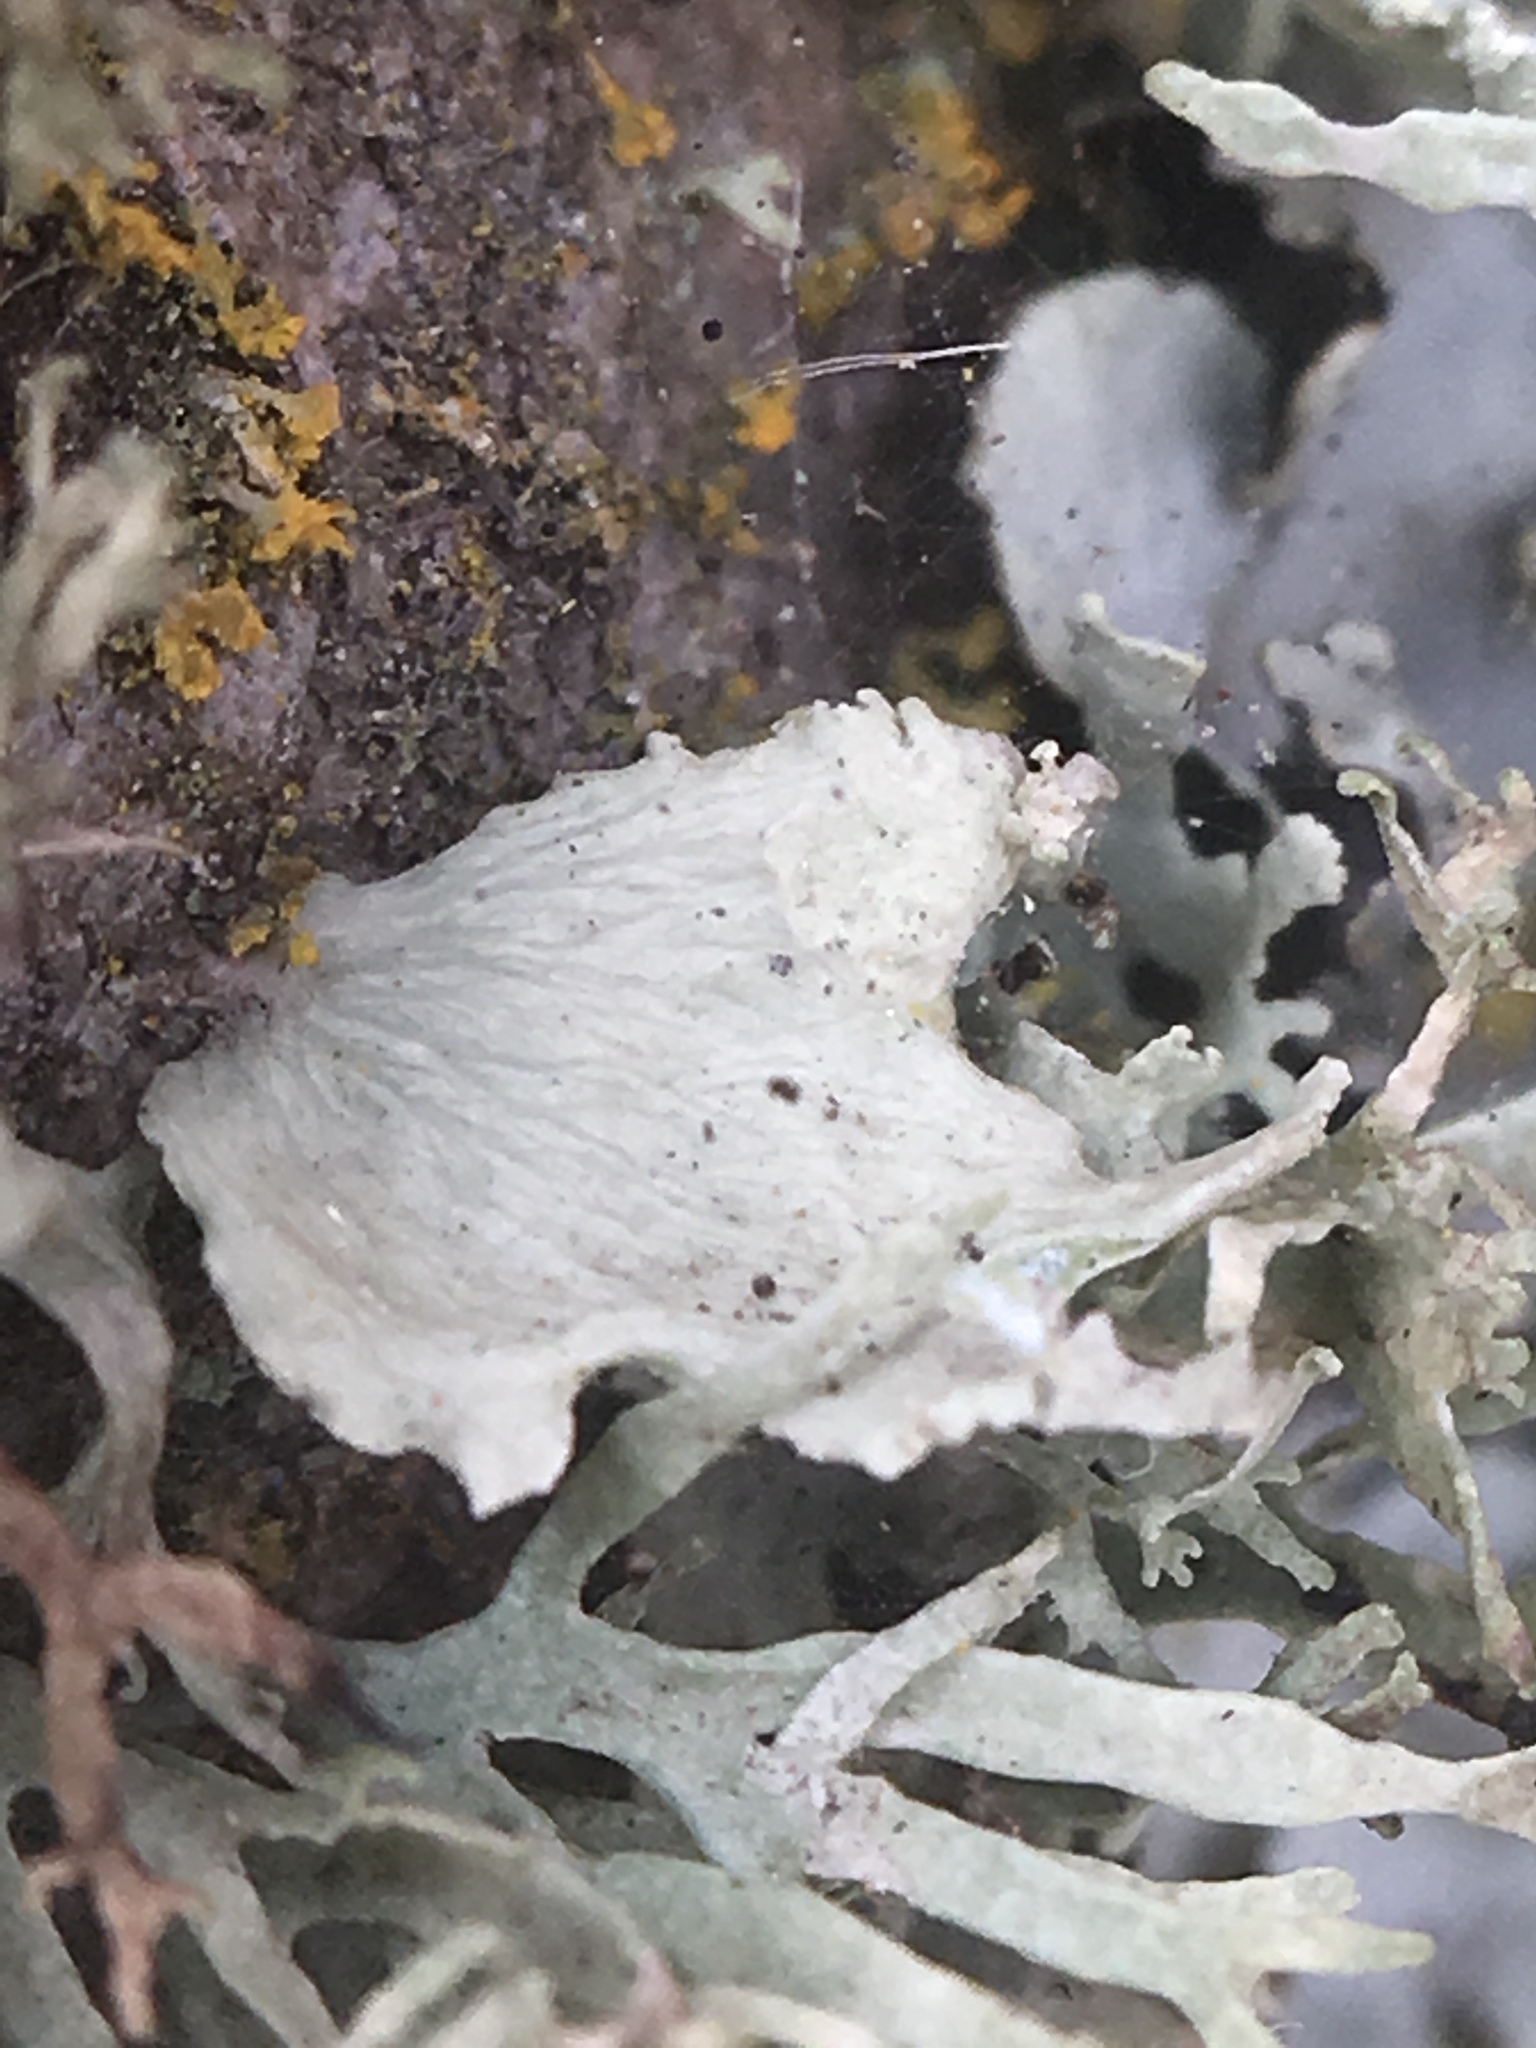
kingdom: Fungi
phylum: Ascomycota
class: Lecanoromycetes
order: Lecanorales
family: Ramalinaceae
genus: Ramalina
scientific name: Ramalina canariensis
